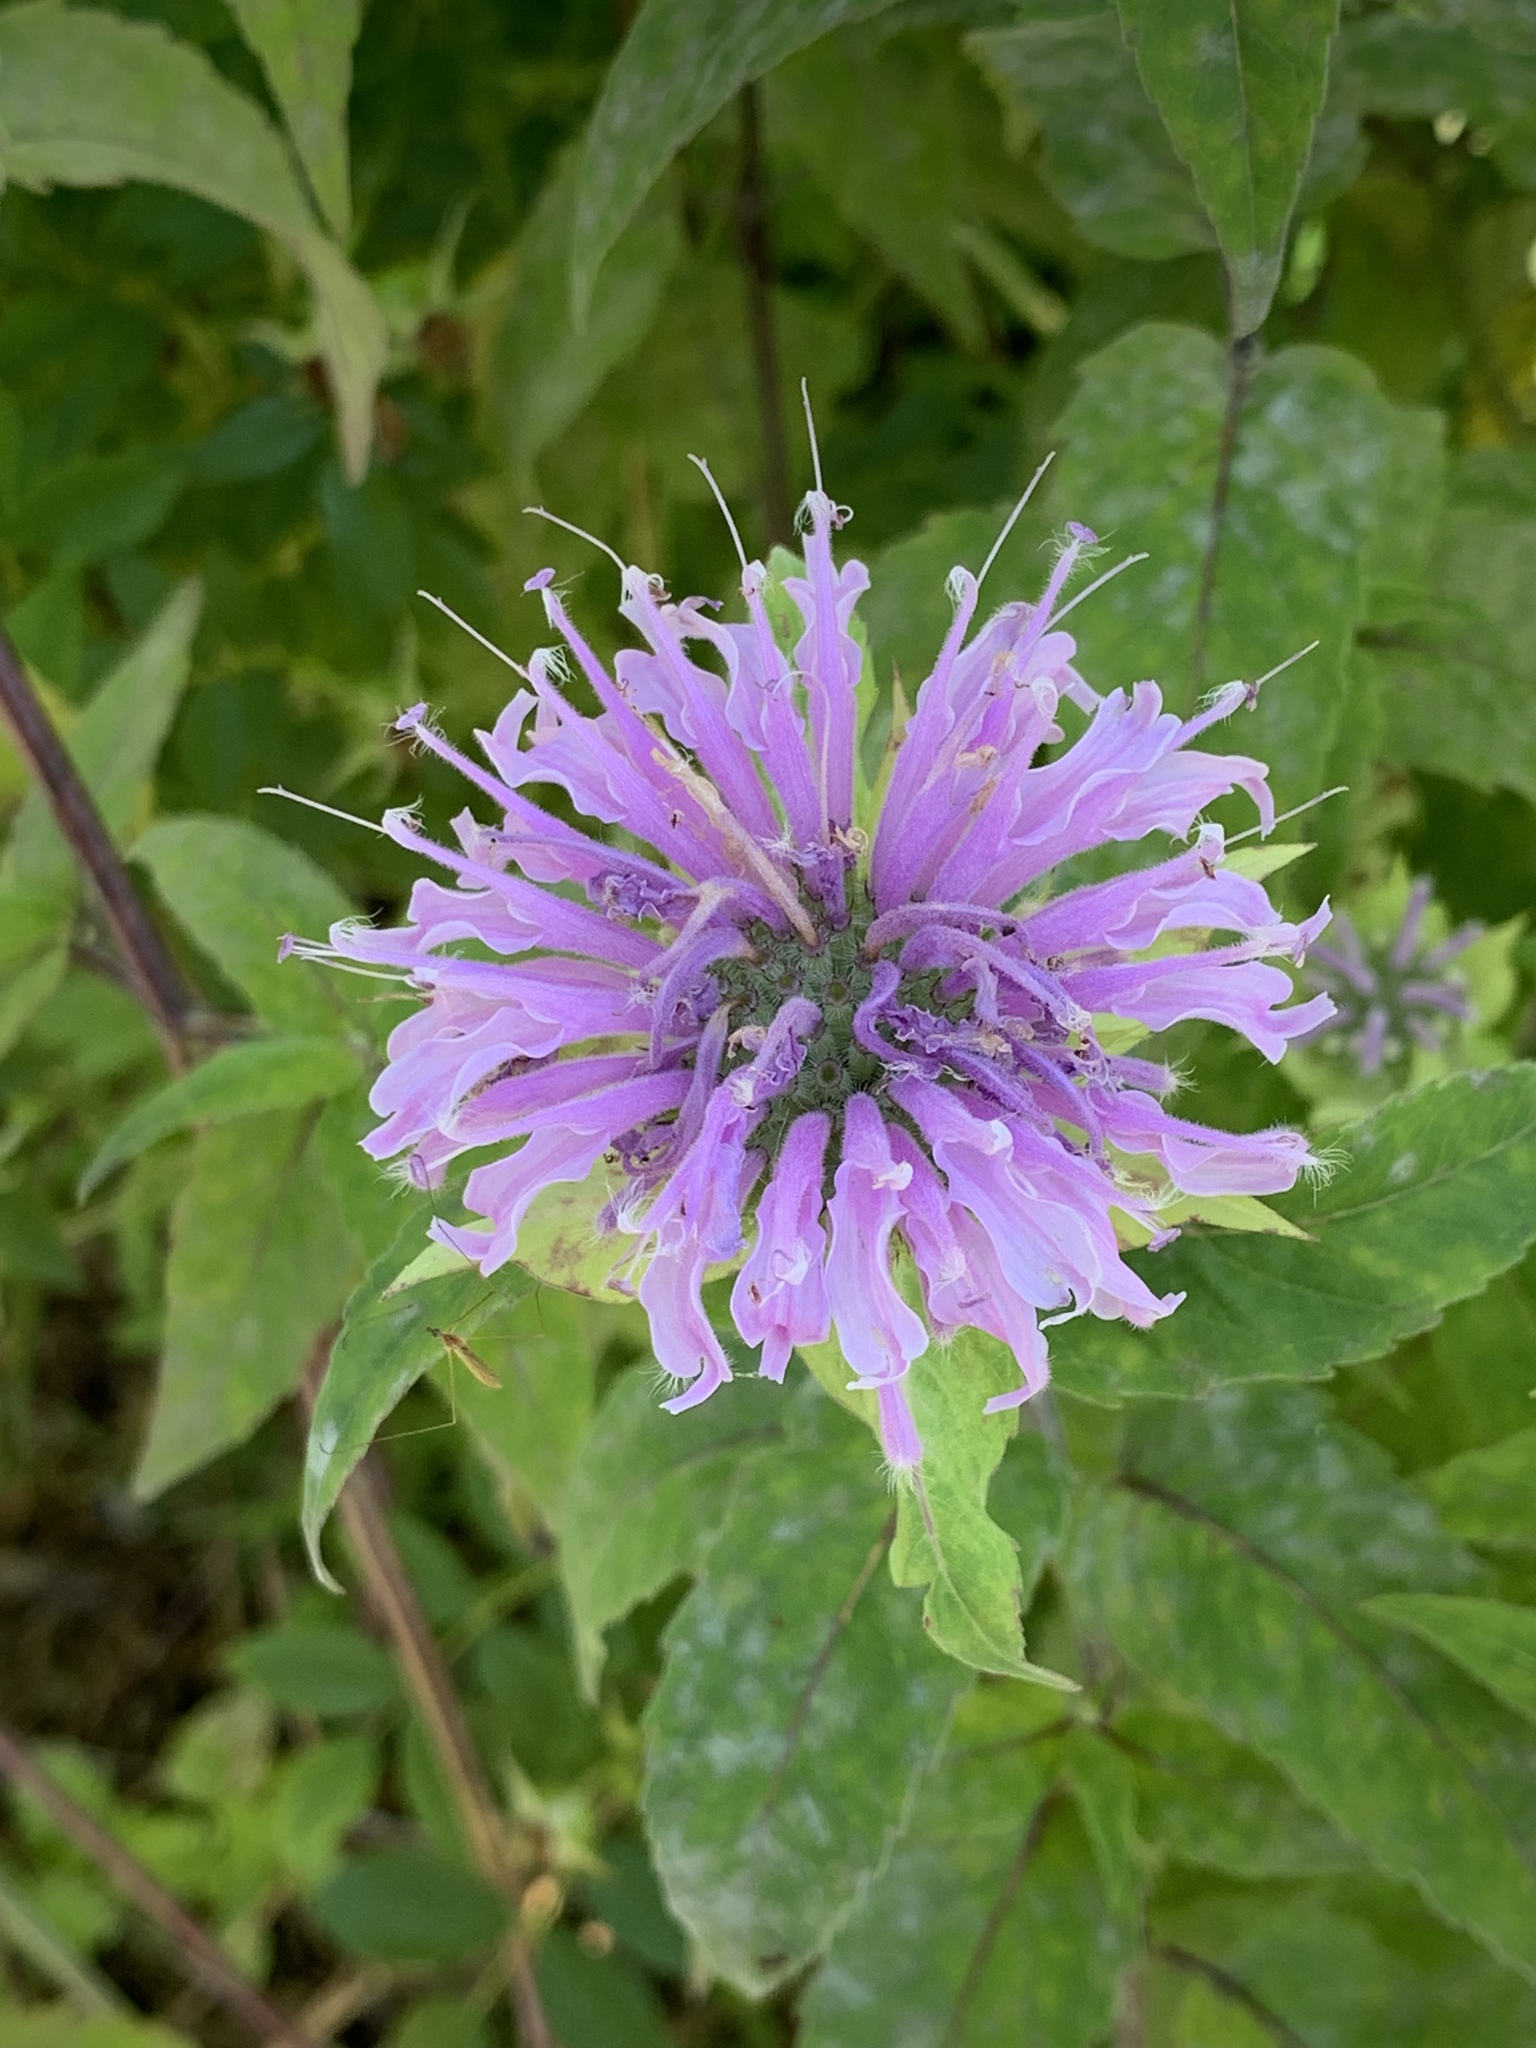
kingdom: Plantae
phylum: Tracheophyta
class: Magnoliopsida
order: Lamiales
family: Lamiaceae
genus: Monarda
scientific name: Monarda fistulosa
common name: Purple beebalm
